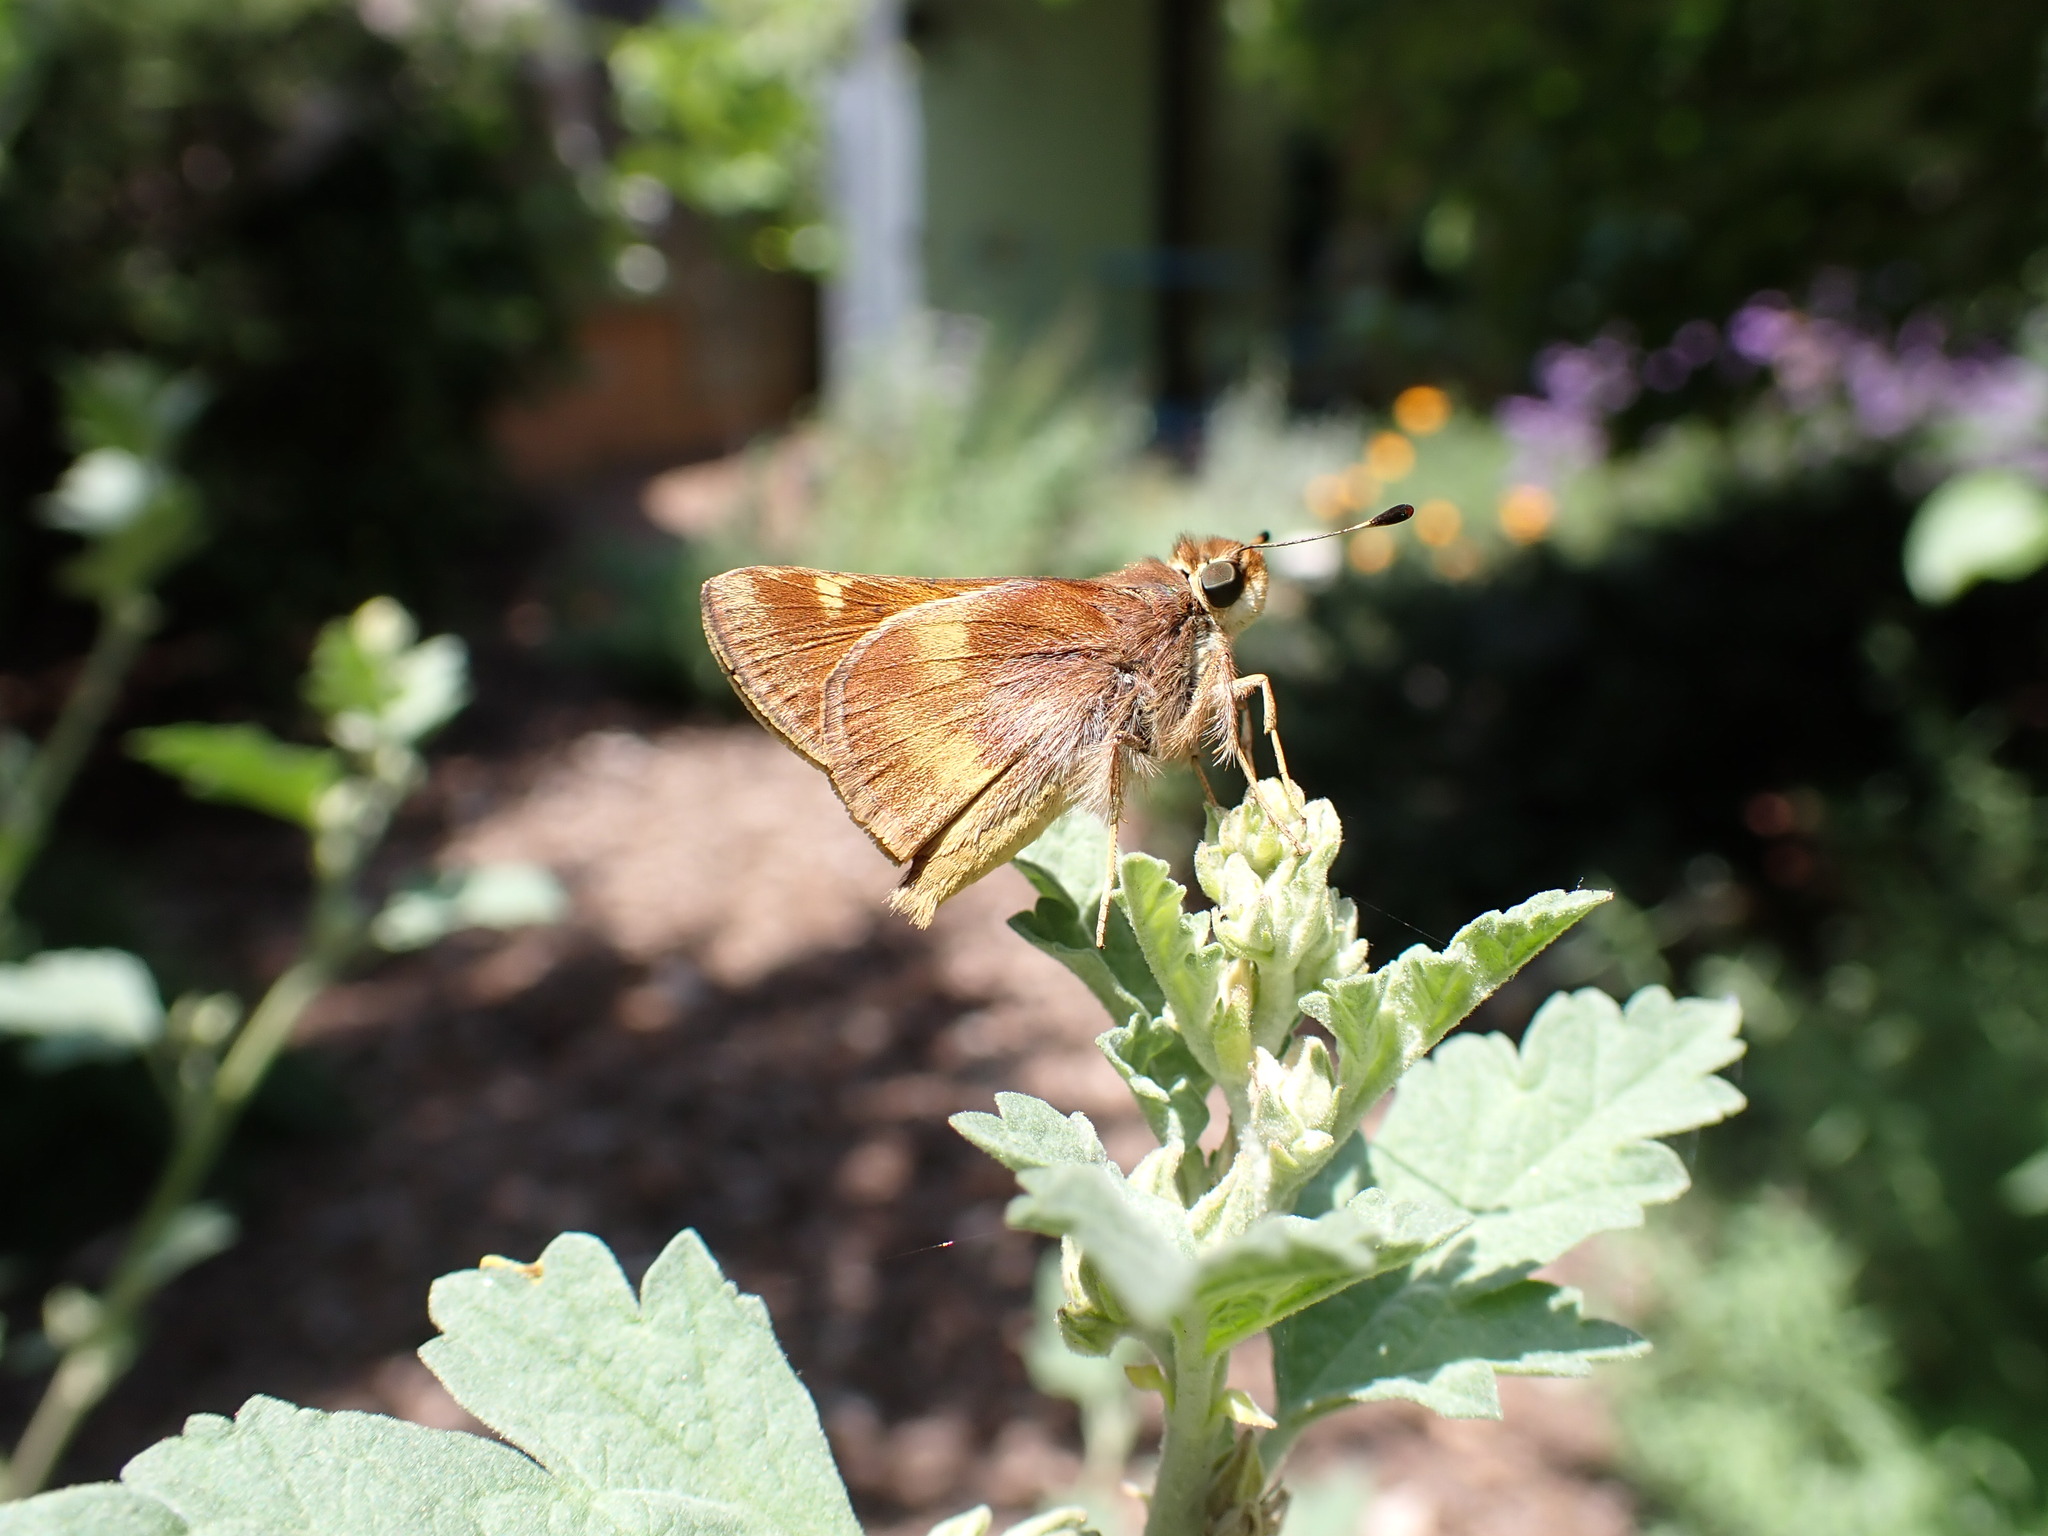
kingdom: Animalia
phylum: Arthropoda
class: Insecta
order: Lepidoptera
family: Hesperiidae
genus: Lon
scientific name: Lon melane
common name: Umber skipper
